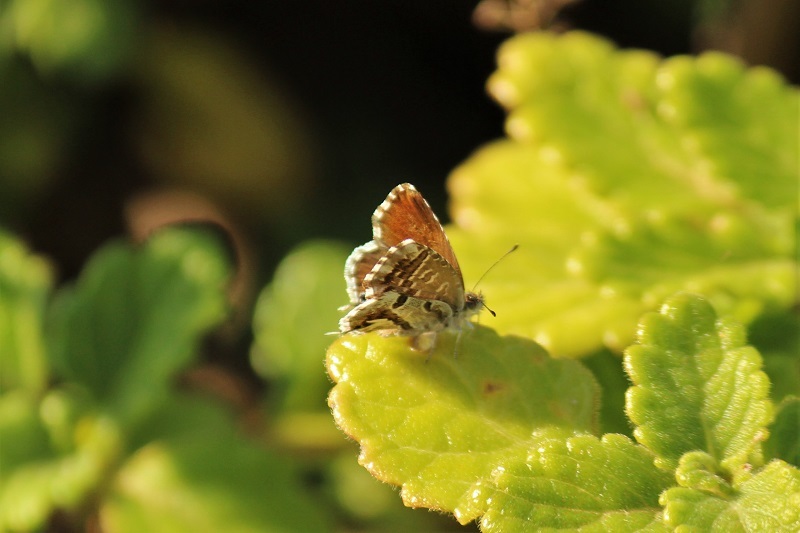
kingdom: Animalia
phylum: Arthropoda
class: Insecta
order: Lepidoptera
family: Lycaenidae
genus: Cacyreus
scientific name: Cacyreus marshalli
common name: Geranium bronze
